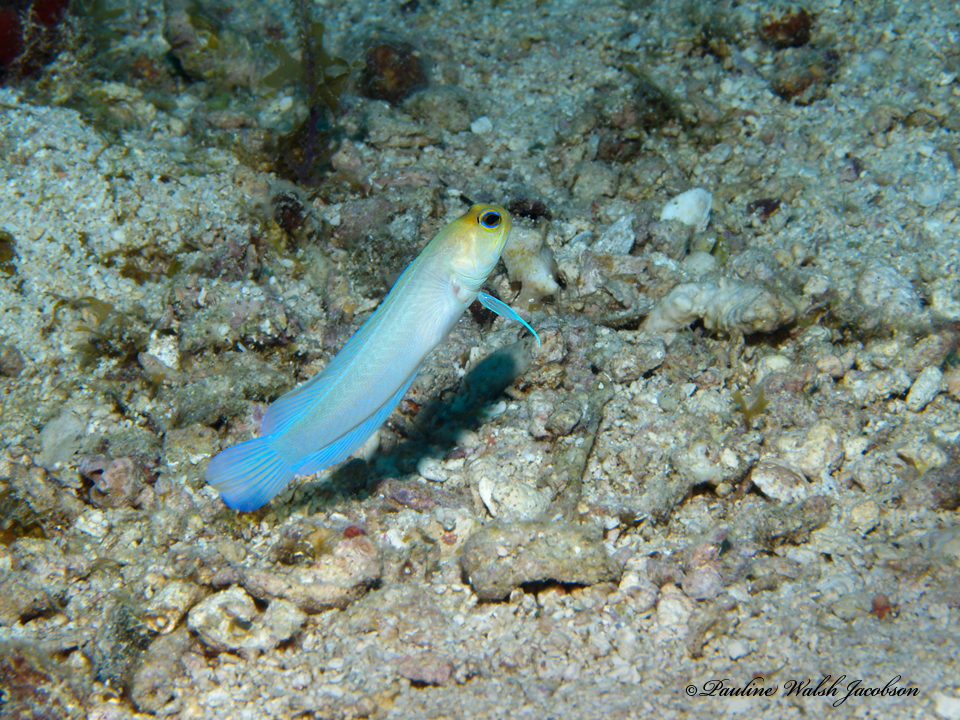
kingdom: Animalia
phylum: Chordata
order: Perciformes
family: Opistognathidae
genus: Opistognathus
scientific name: Opistognathus aurifrons
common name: Yellowhead jawfish
